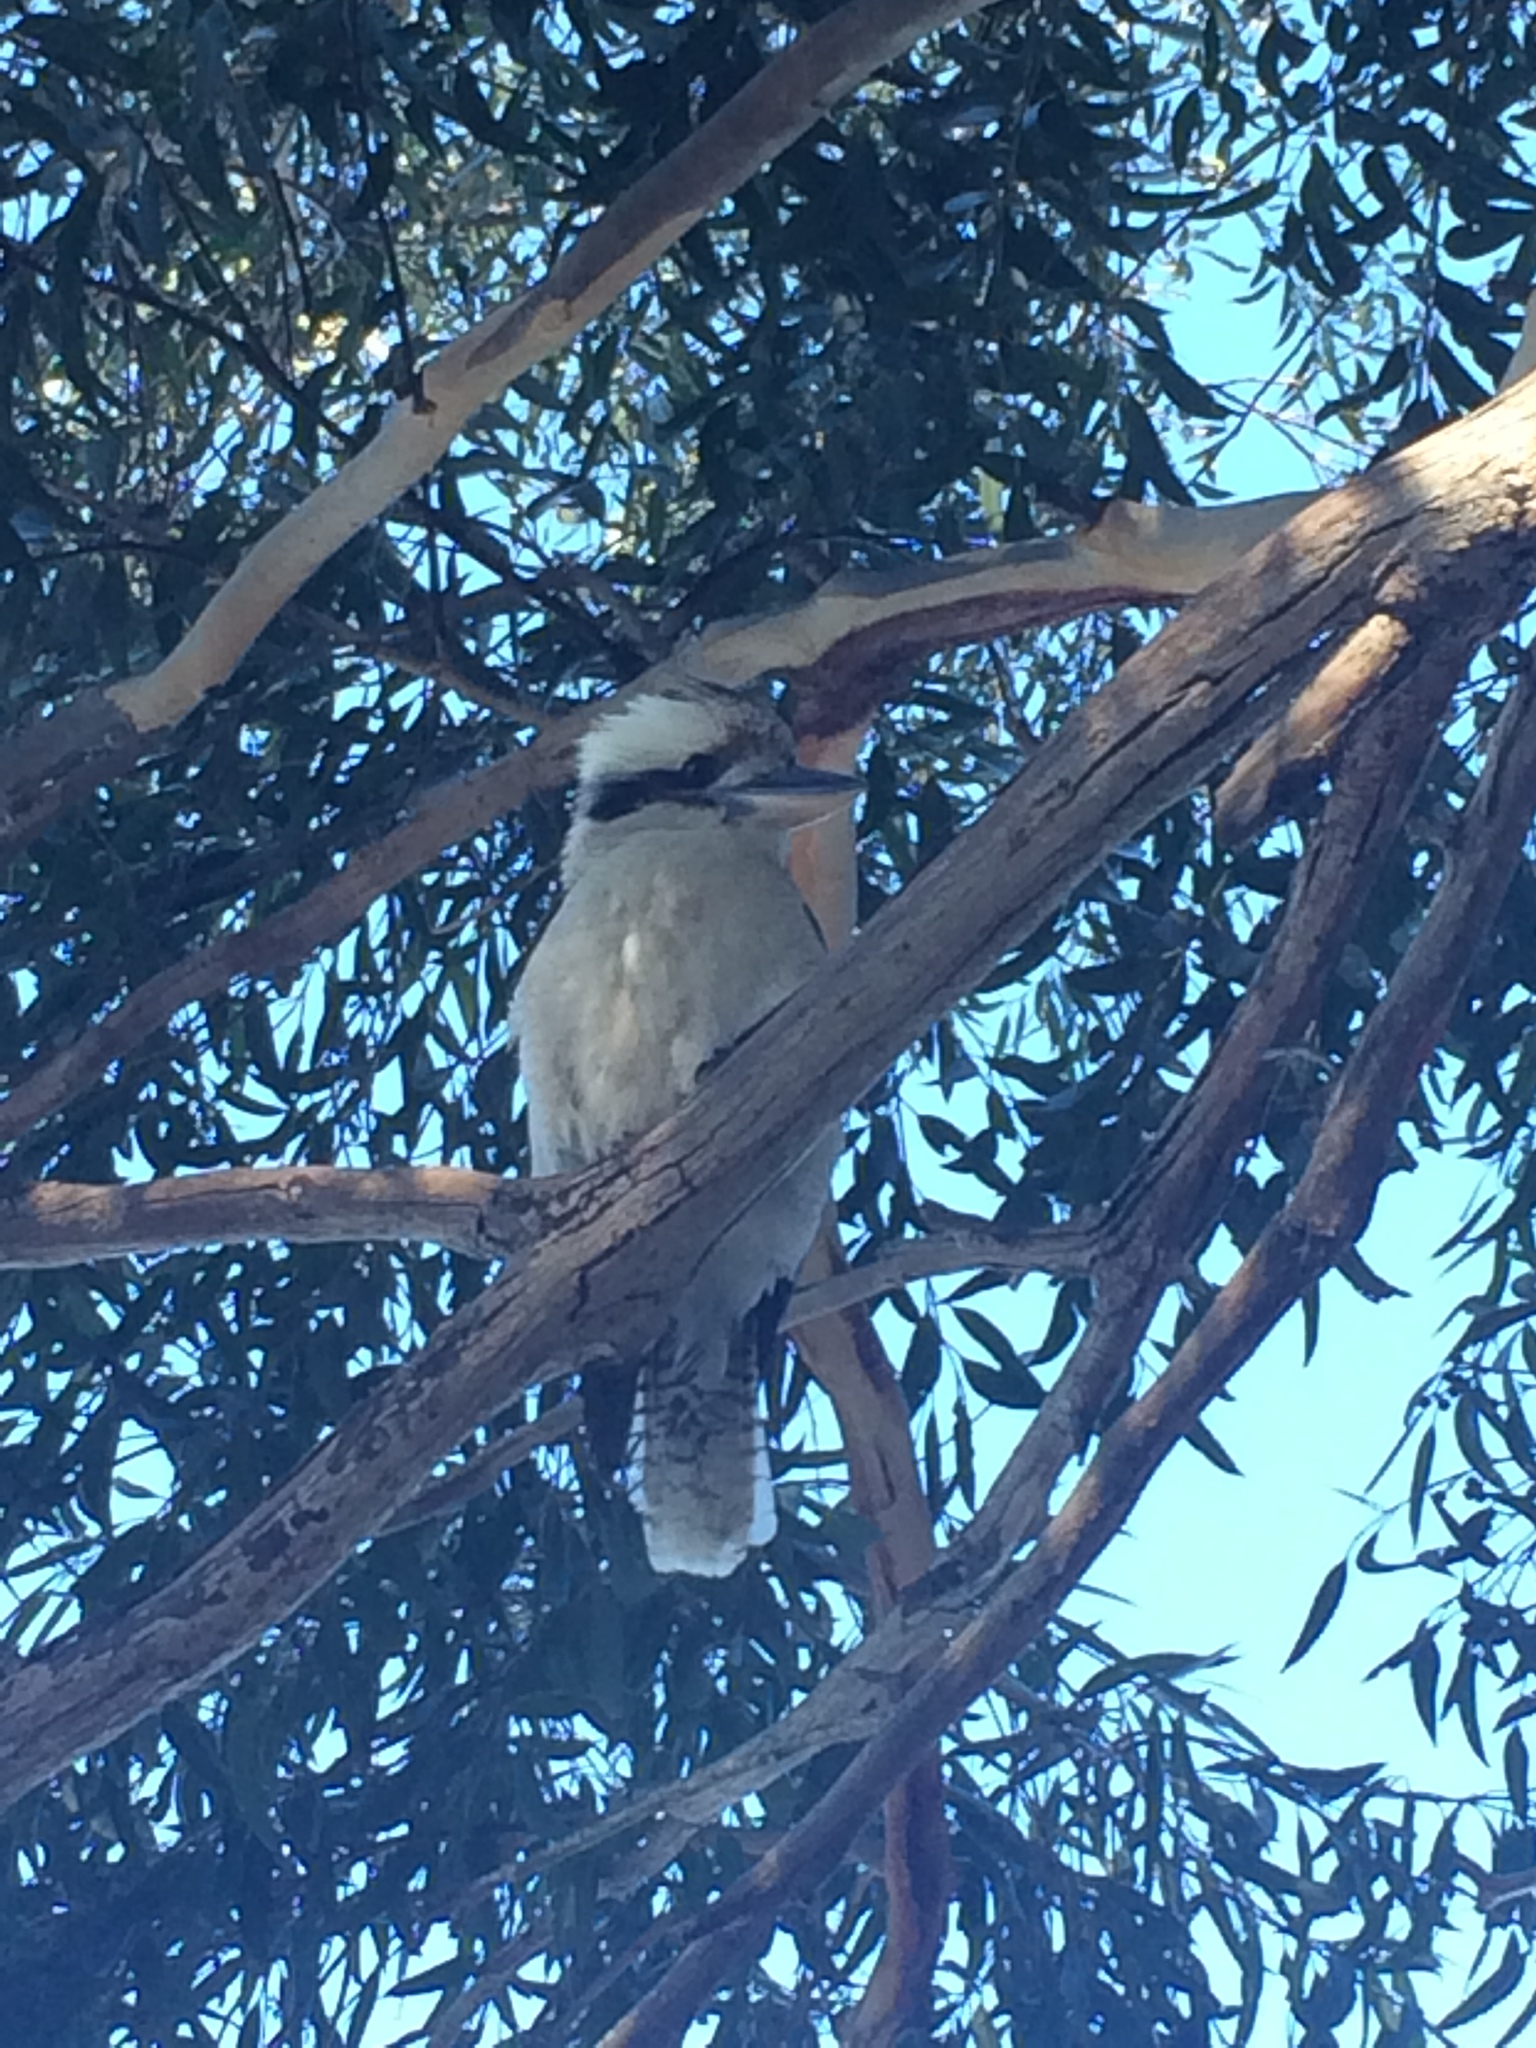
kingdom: Animalia
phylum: Chordata
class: Aves
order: Coraciiformes
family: Alcedinidae
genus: Dacelo
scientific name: Dacelo novaeguineae
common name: Laughing kookaburra
